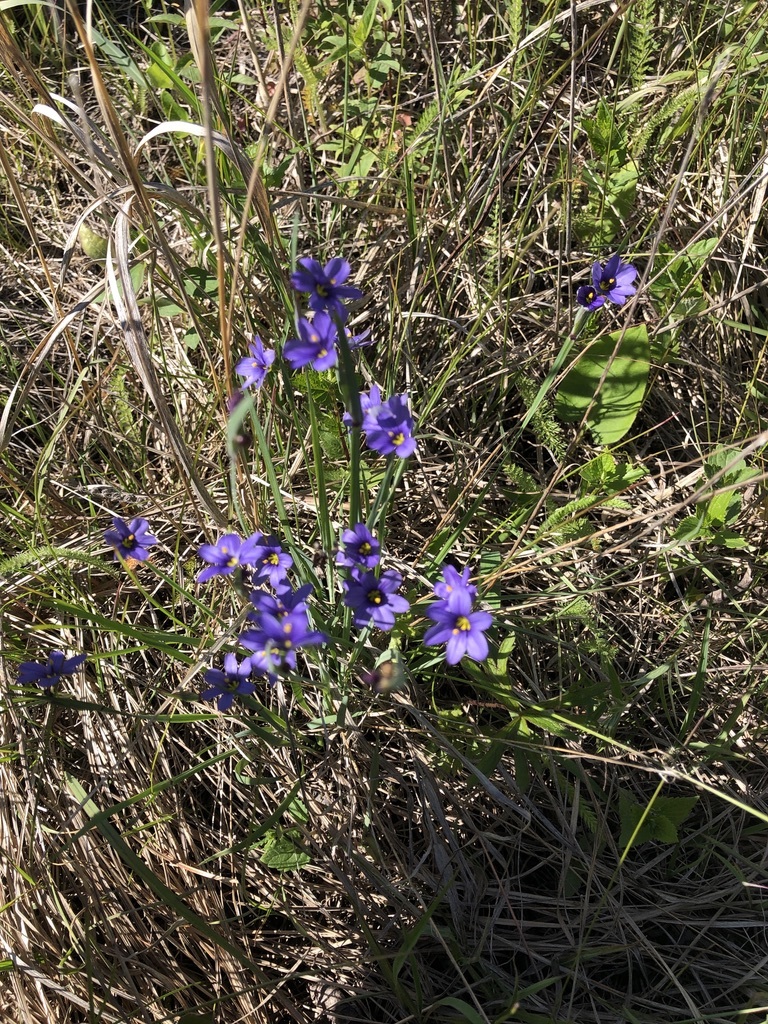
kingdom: Plantae
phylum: Tracheophyta
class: Liliopsida
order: Asparagales
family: Iridaceae
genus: Sisyrinchium
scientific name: Sisyrinchium montanum
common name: American blue-eyed-grass
